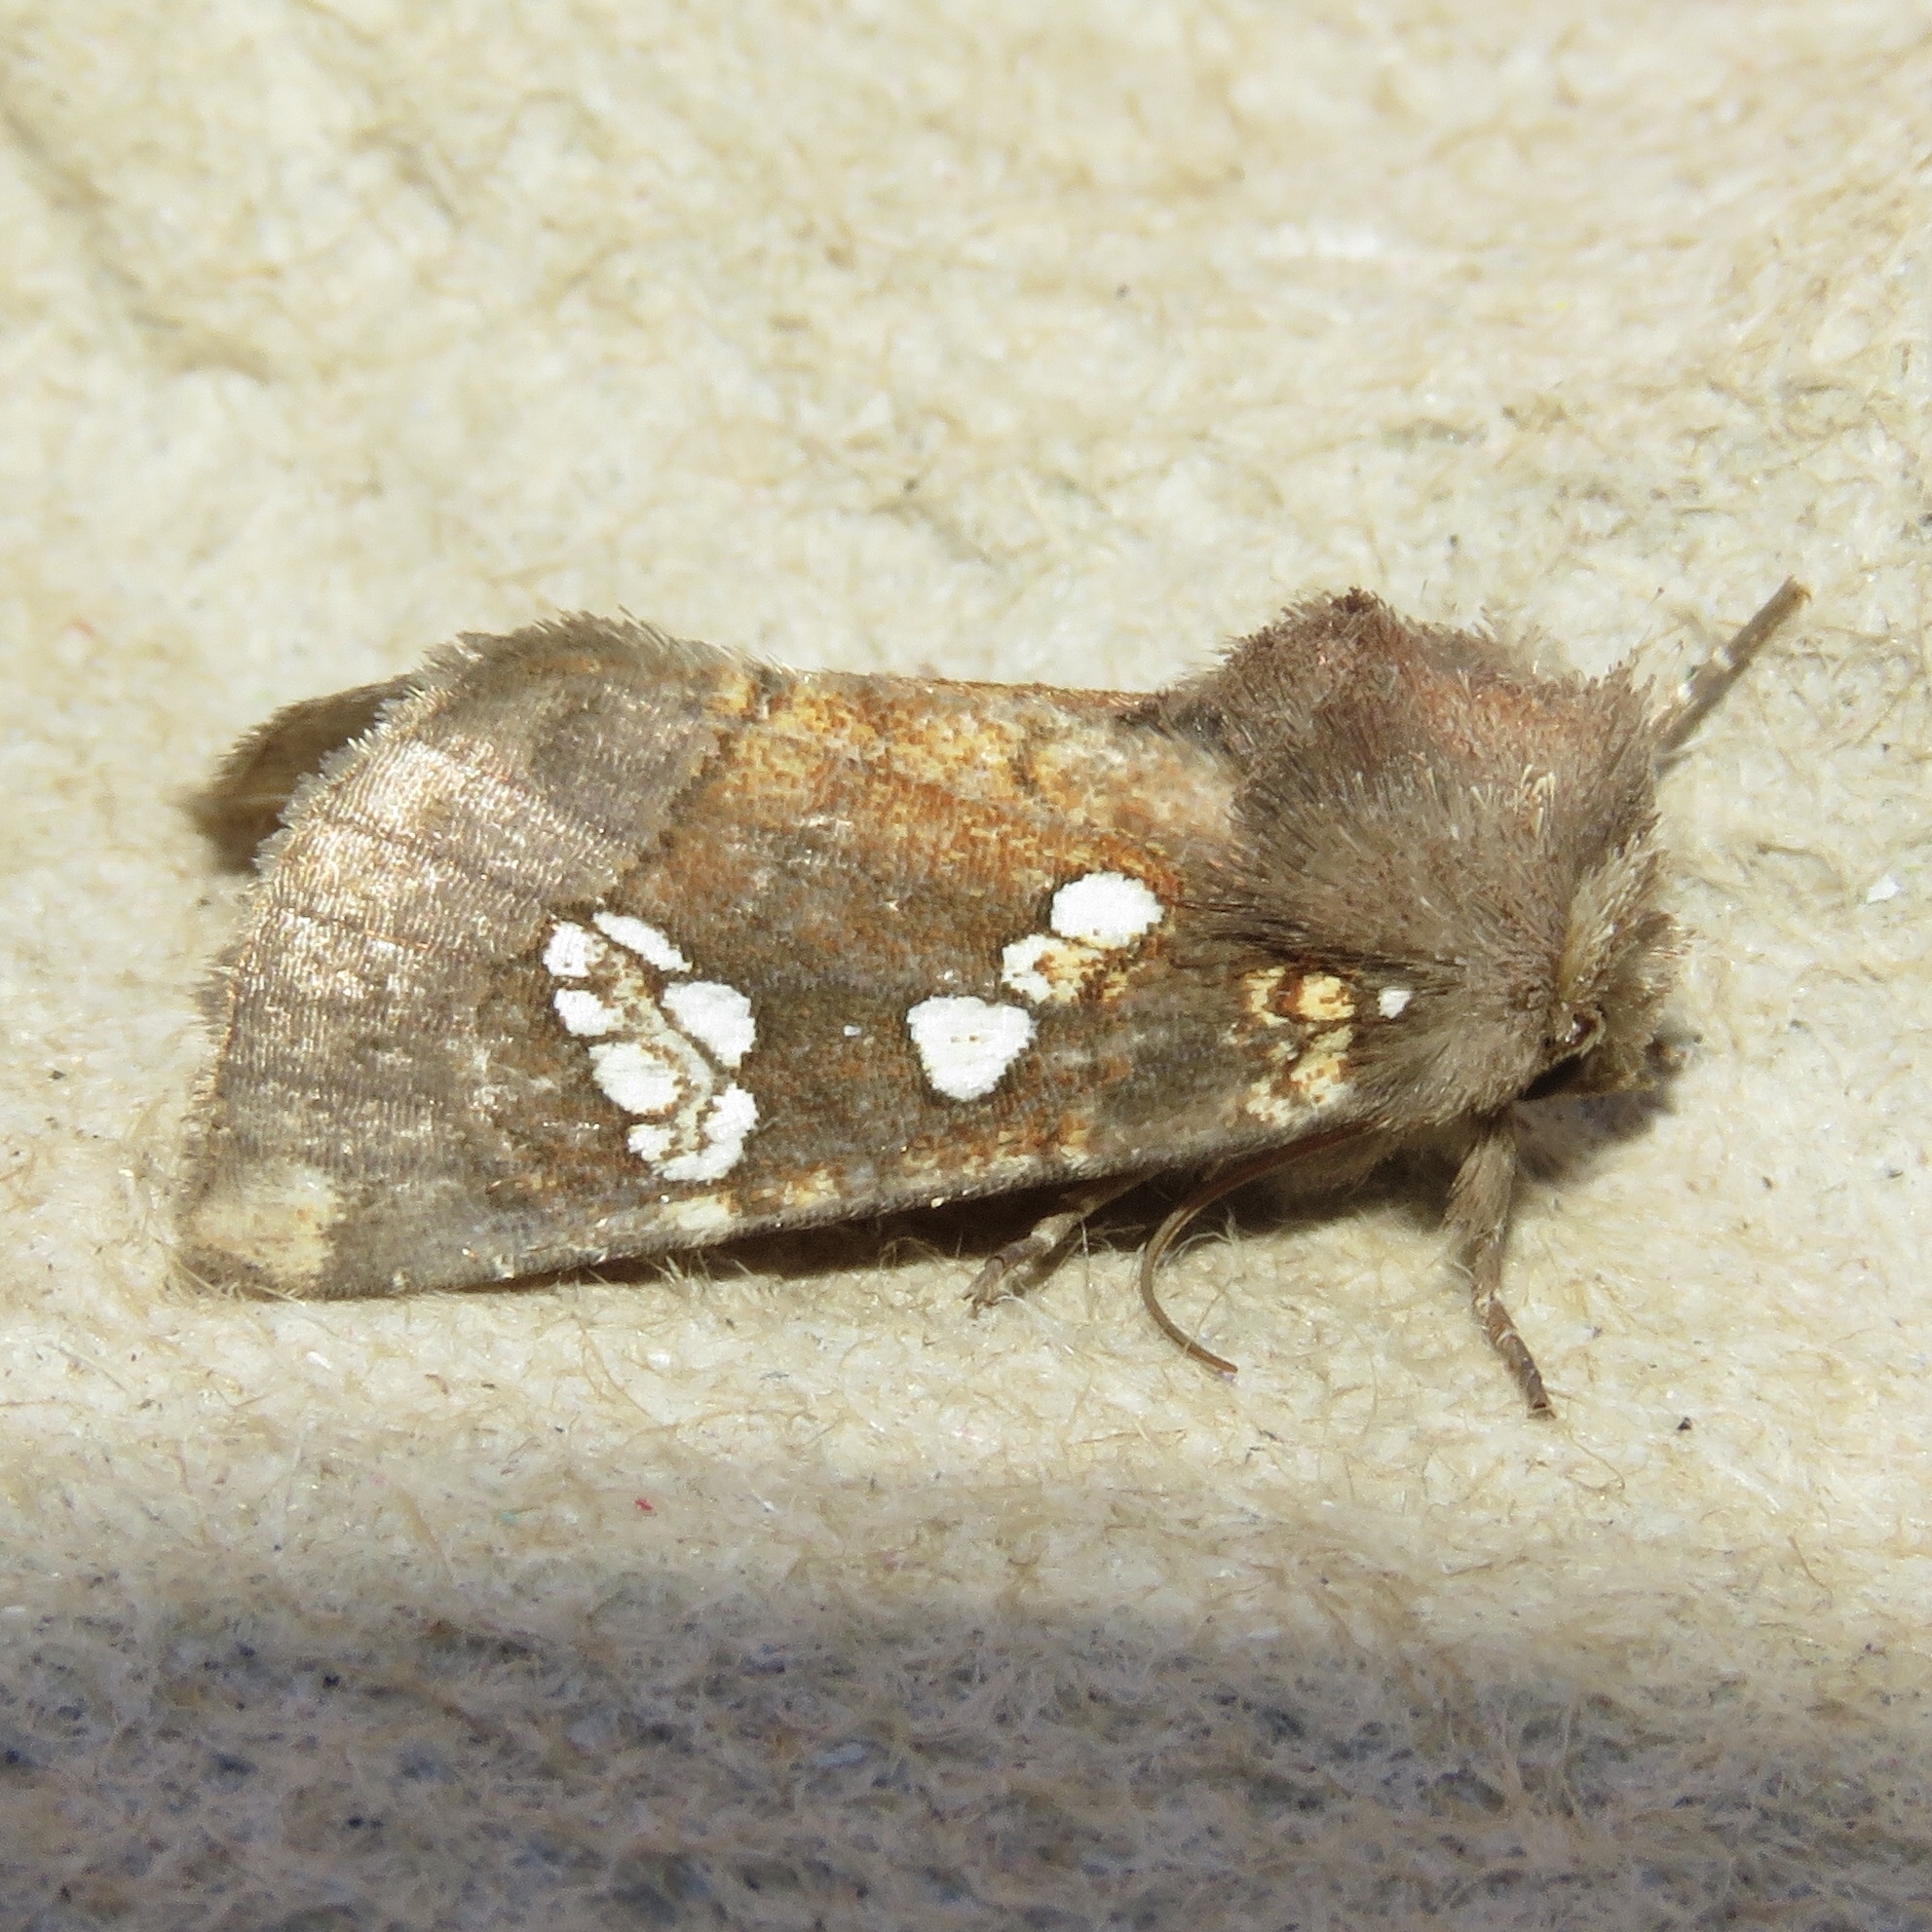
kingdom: Animalia
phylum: Arthropoda
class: Insecta
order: Lepidoptera
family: Noctuidae
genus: Papaipema
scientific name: Papaipema nepheleptena
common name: Turtle head borer moth
